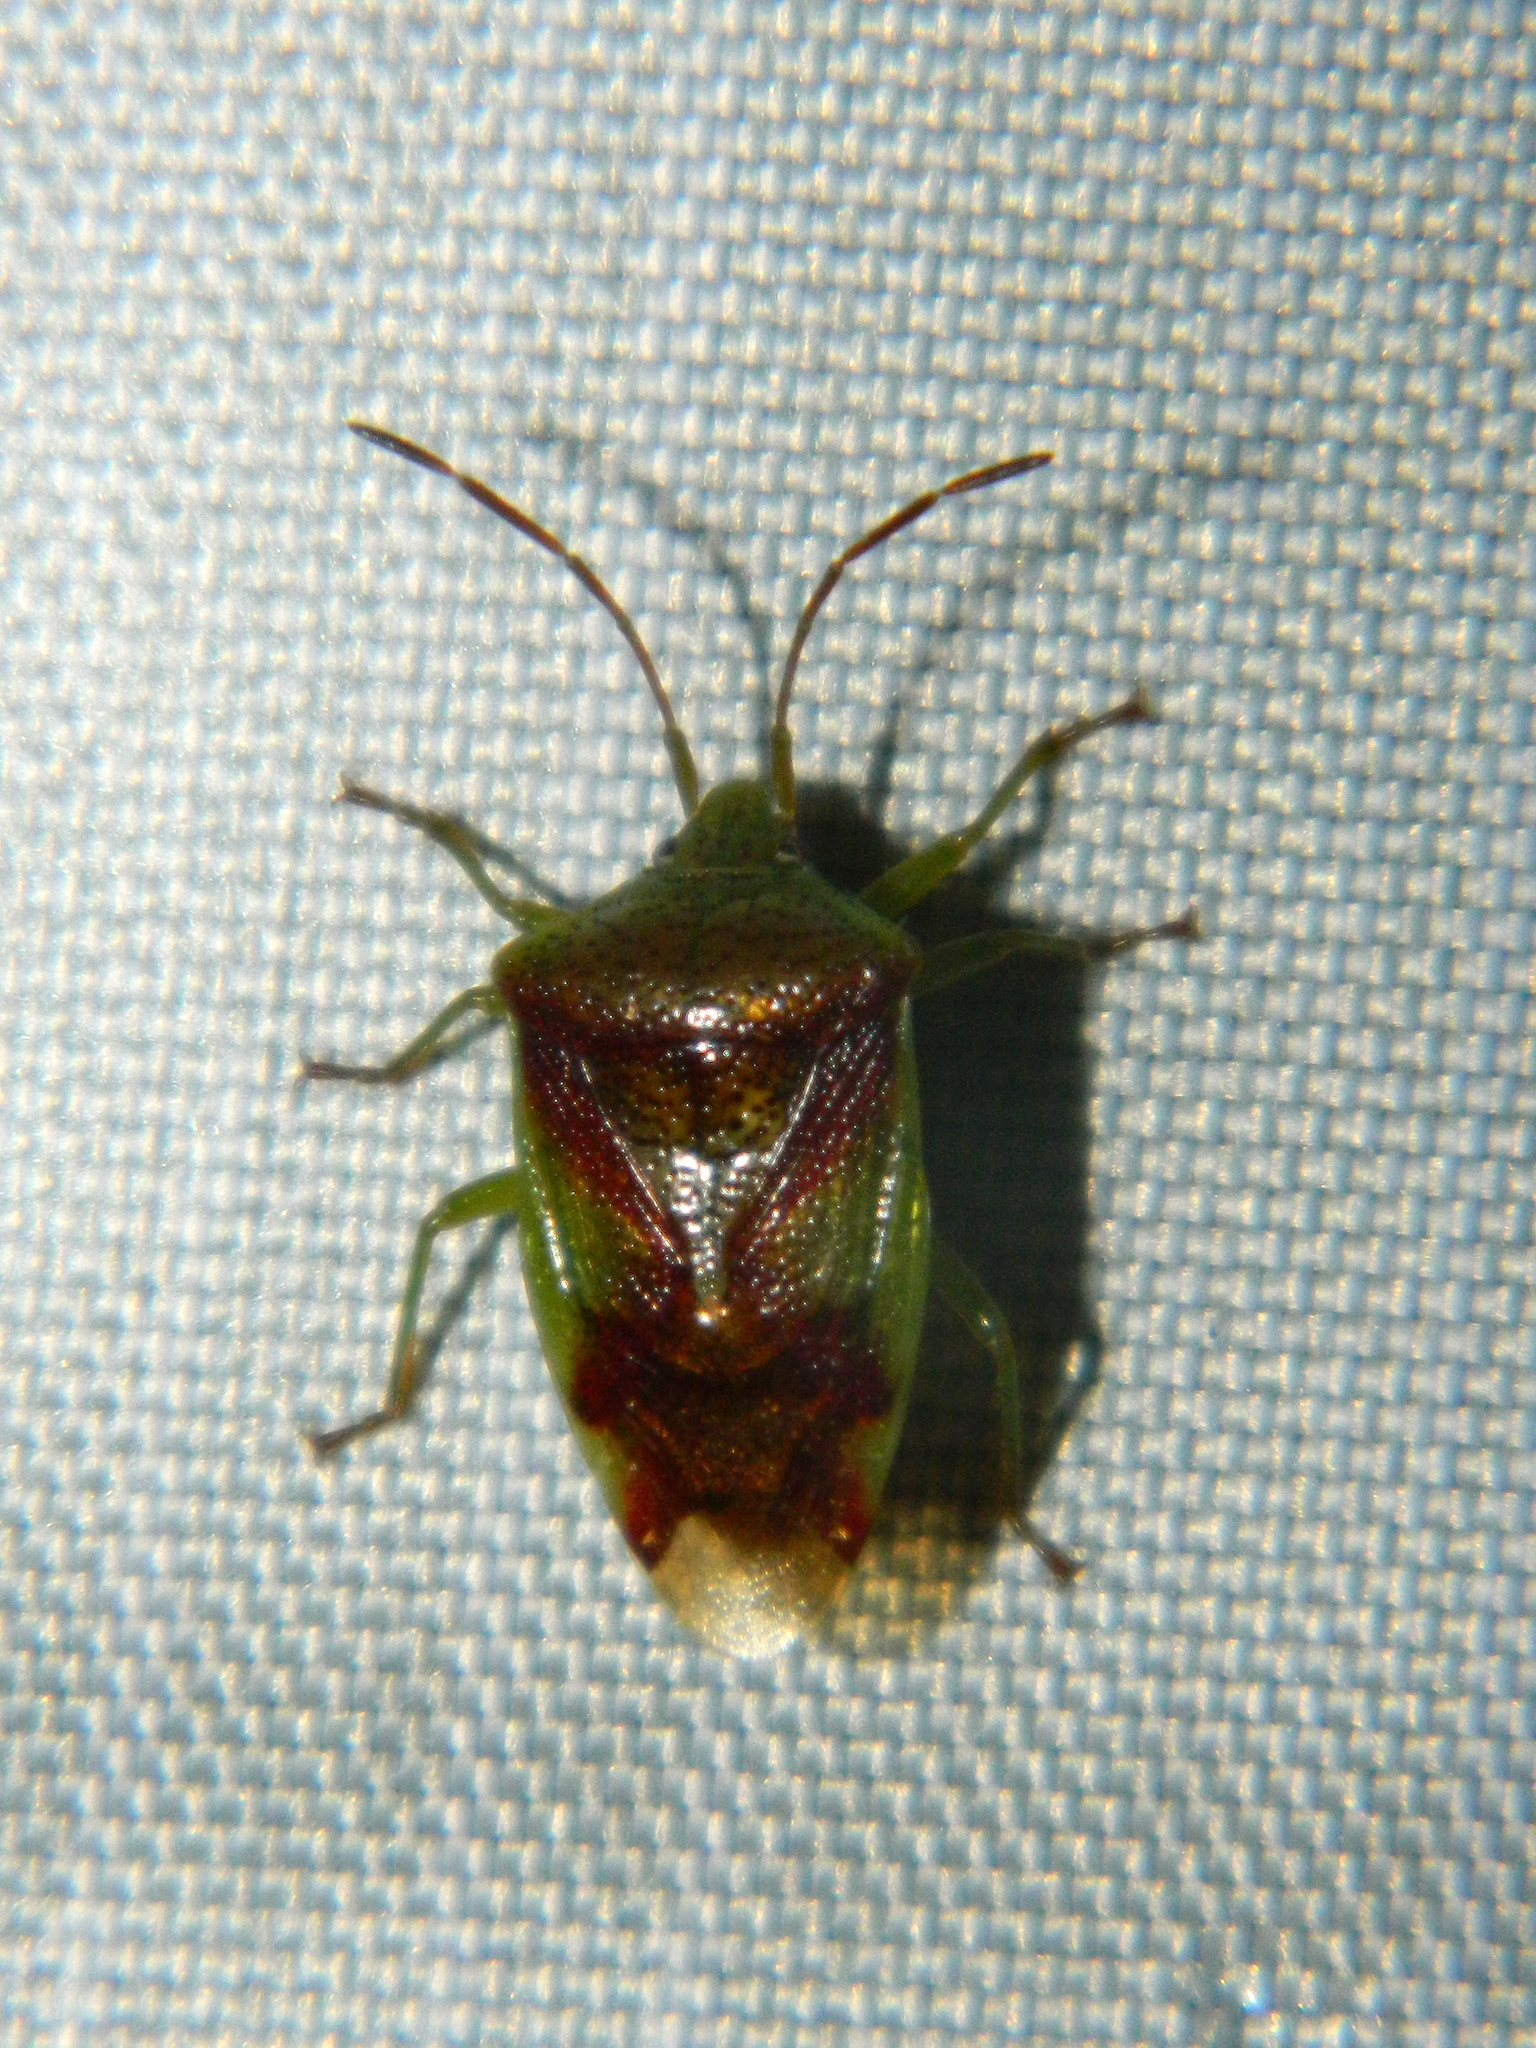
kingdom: Animalia
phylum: Arthropoda
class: Insecta
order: Hemiptera
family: Acanthosomatidae
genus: Elasmostethus
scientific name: Elasmostethus cruciatus
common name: Red-cross shield bug
